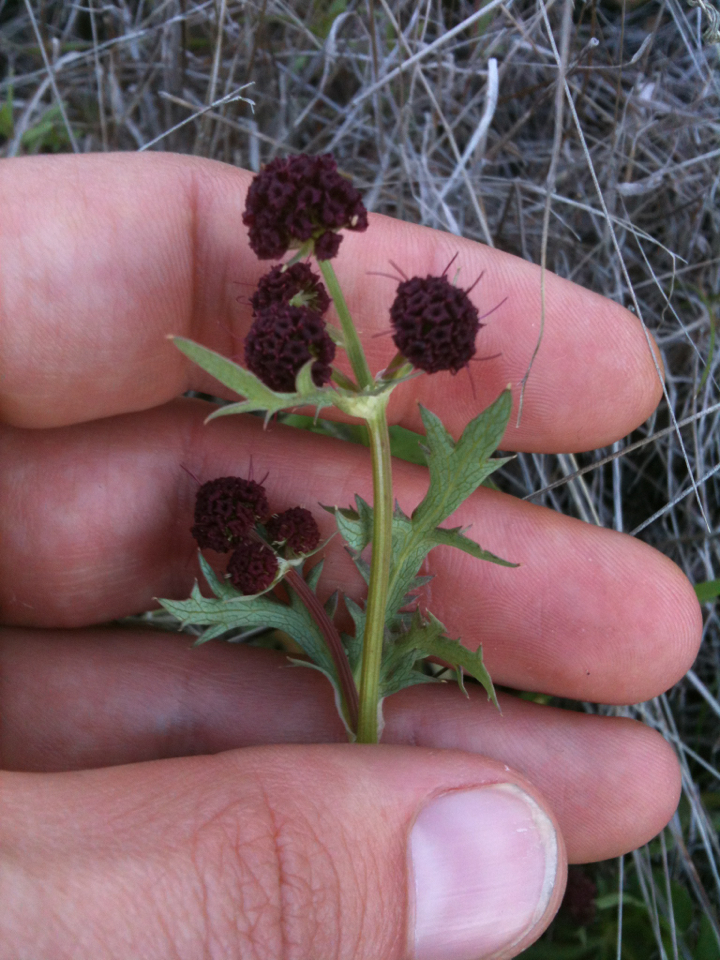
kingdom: Plantae
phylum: Tracheophyta
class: Magnoliopsida
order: Apiales
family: Apiaceae
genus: Sanicula
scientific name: Sanicula bipinnatifida
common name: Shoe-buttons
